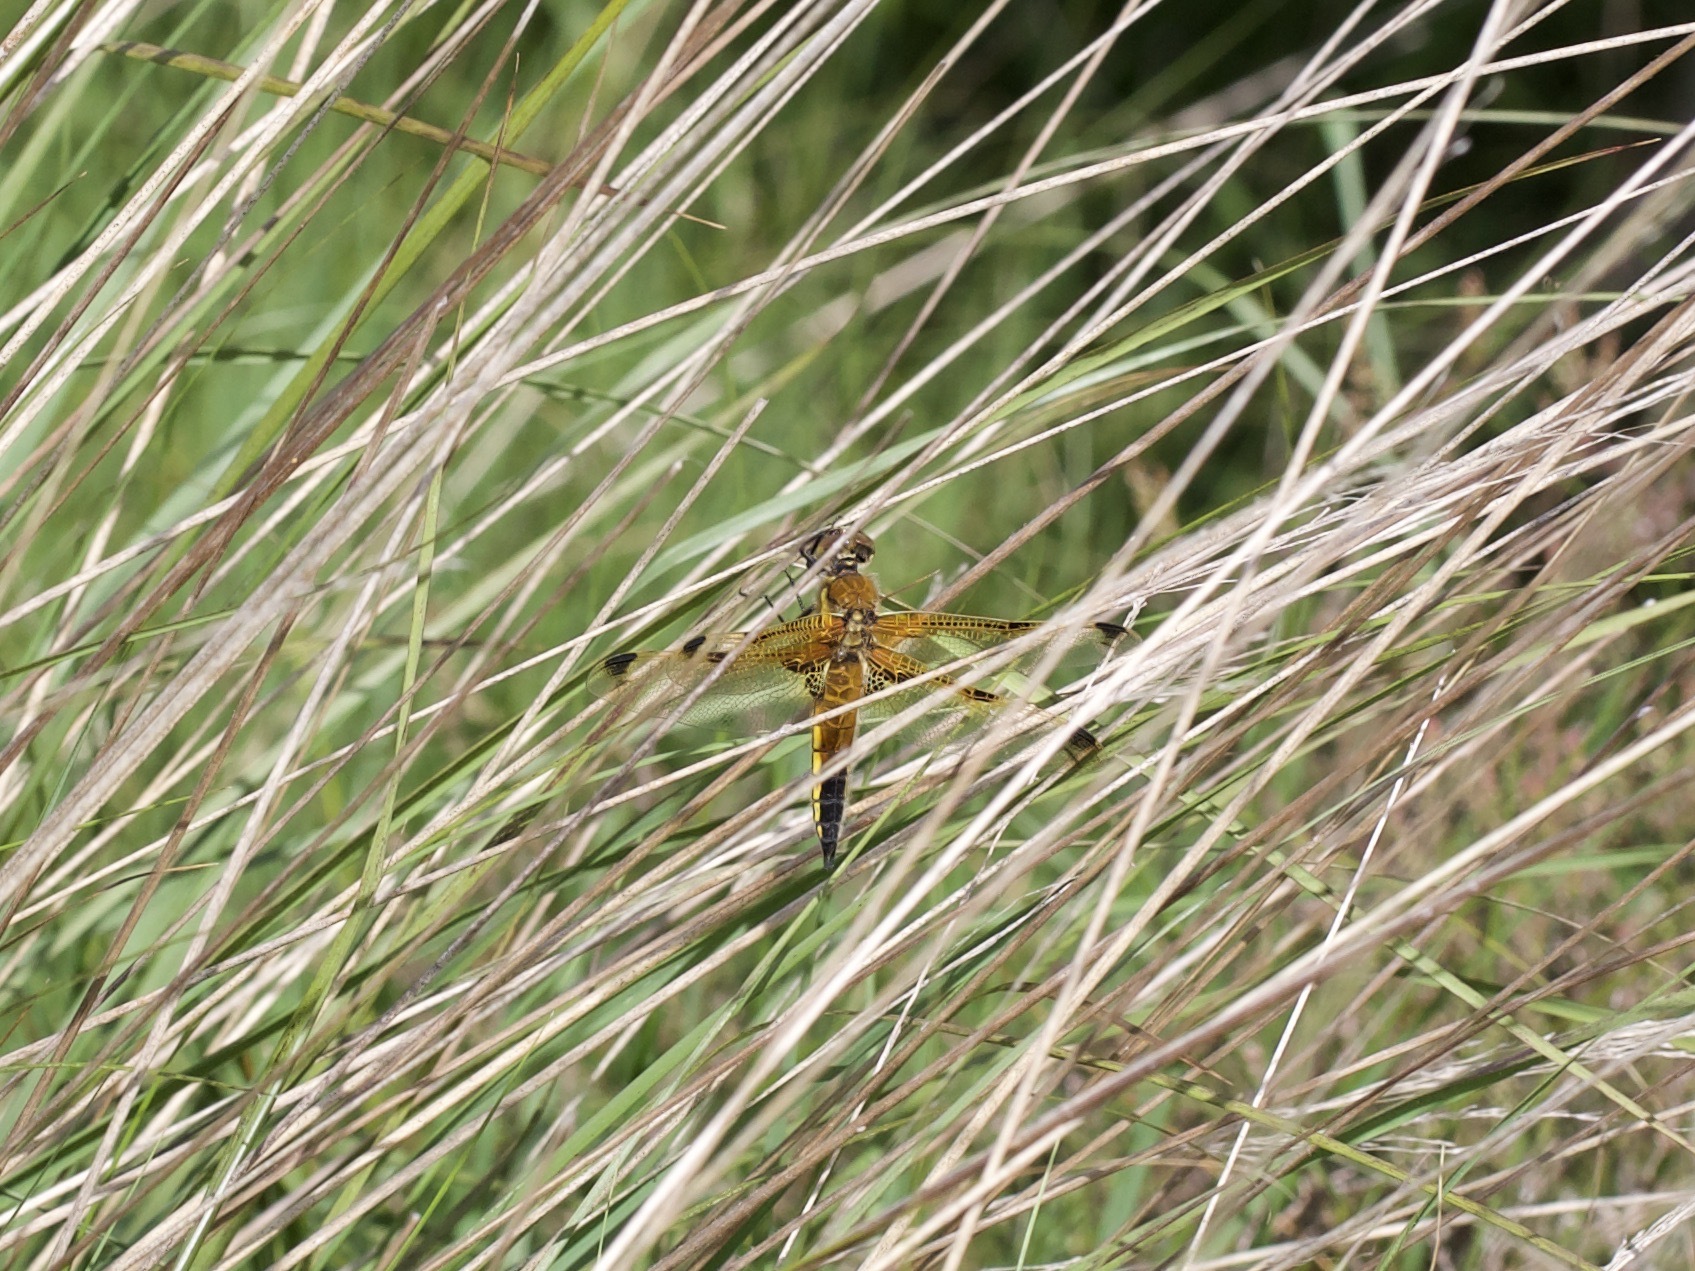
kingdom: Animalia
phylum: Arthropoda
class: Insecta
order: Odonata
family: Libellulidae
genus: Libellula
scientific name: Libellula quadrimaculata
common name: Four-spotted chaser
